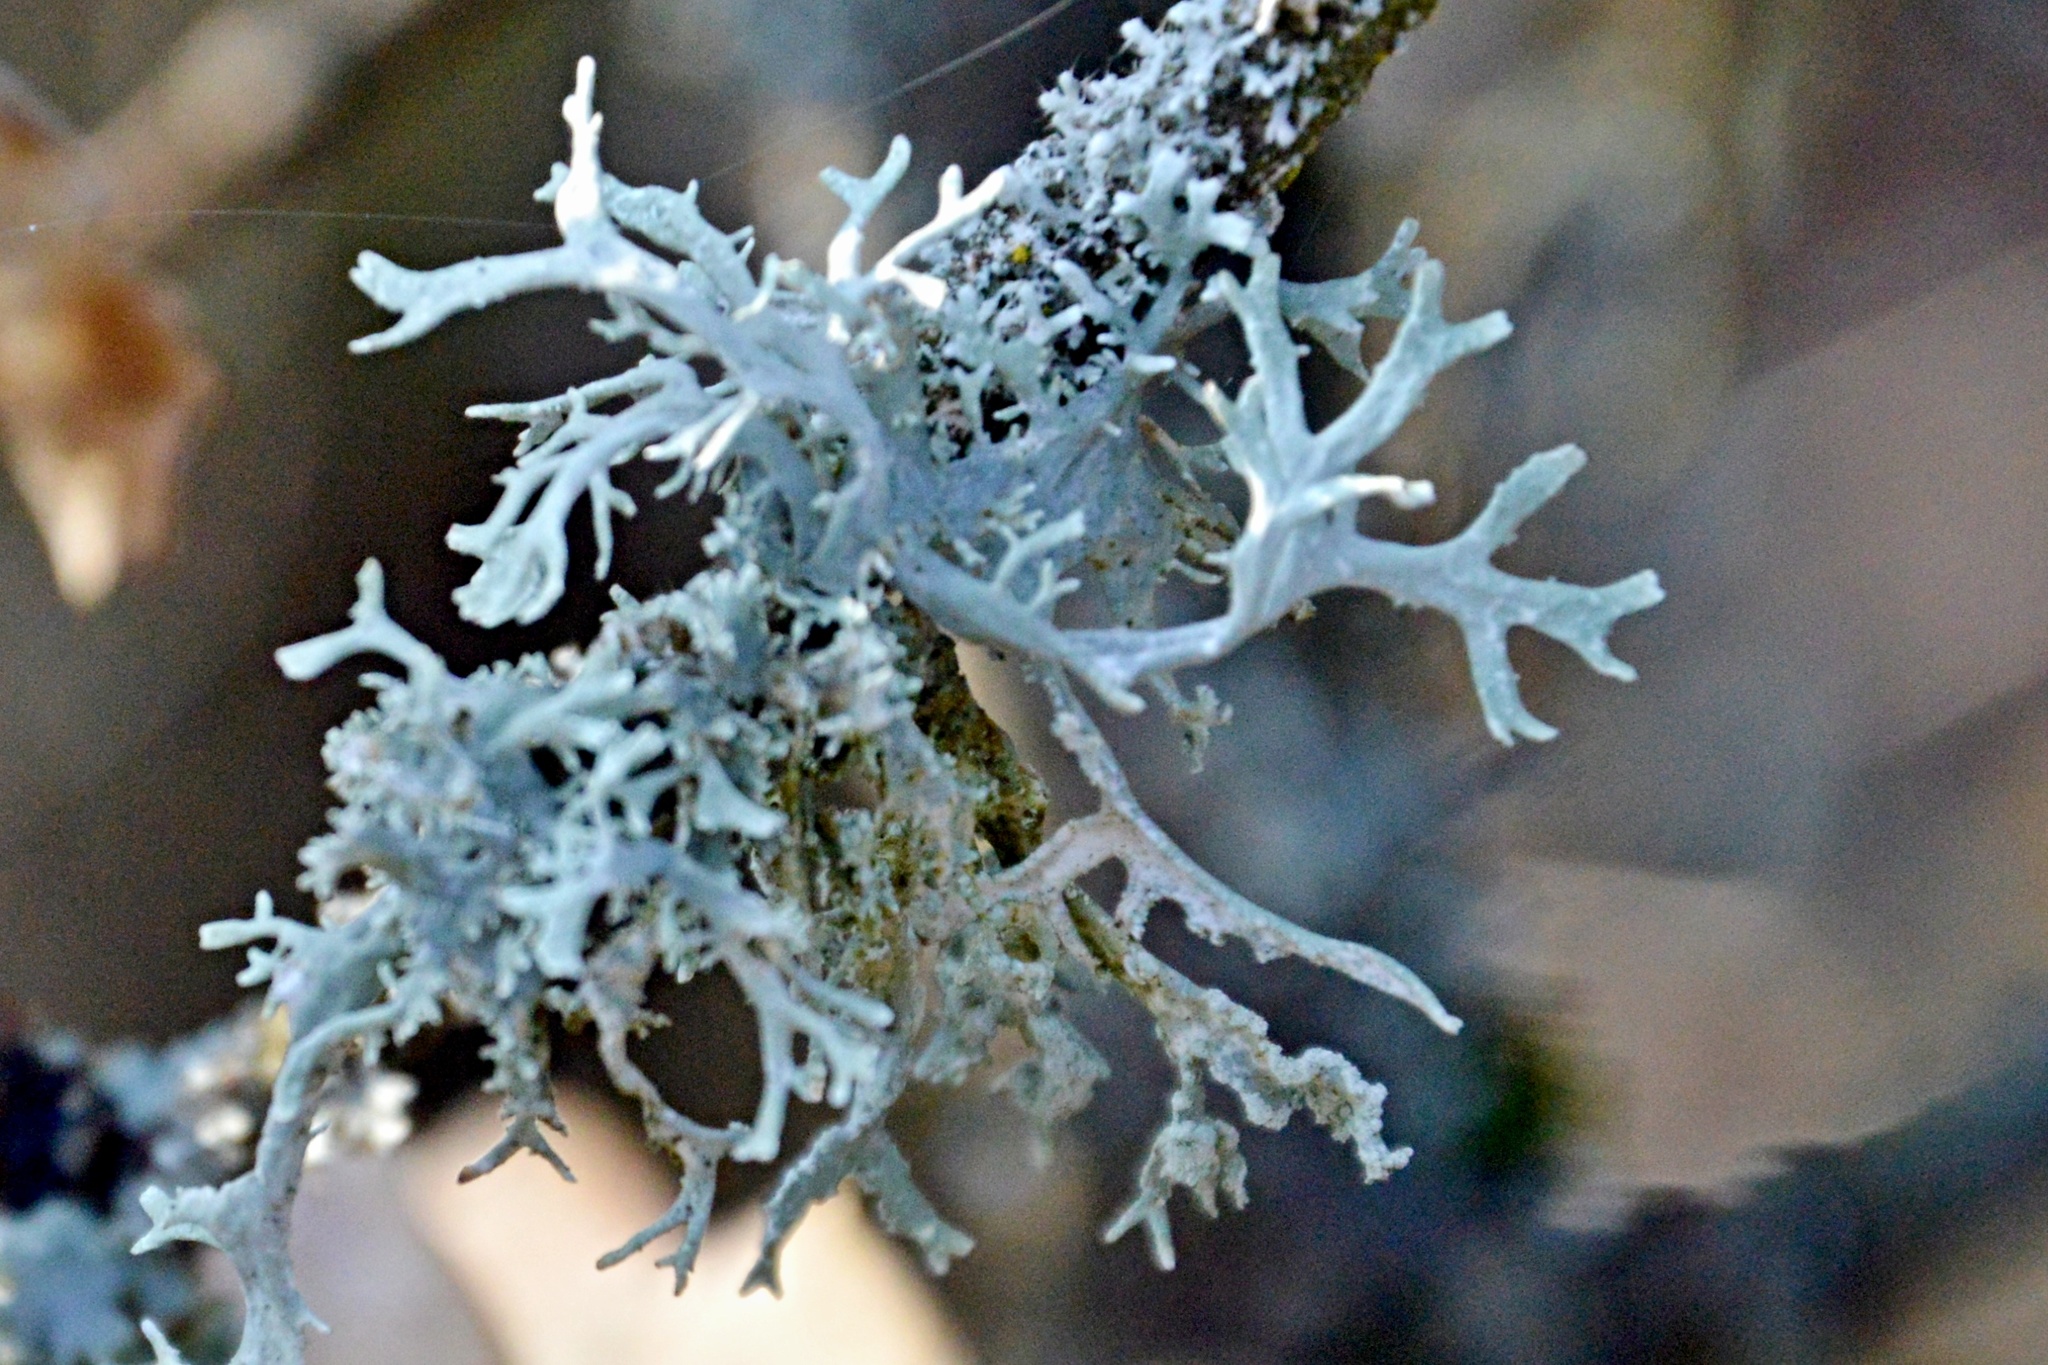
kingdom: Fungi
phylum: Ascomycota
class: Lecanoromycetes
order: Lecanorales
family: Parmeliaceae
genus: Evernia
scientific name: Evernia prunastri
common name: Oak moss
